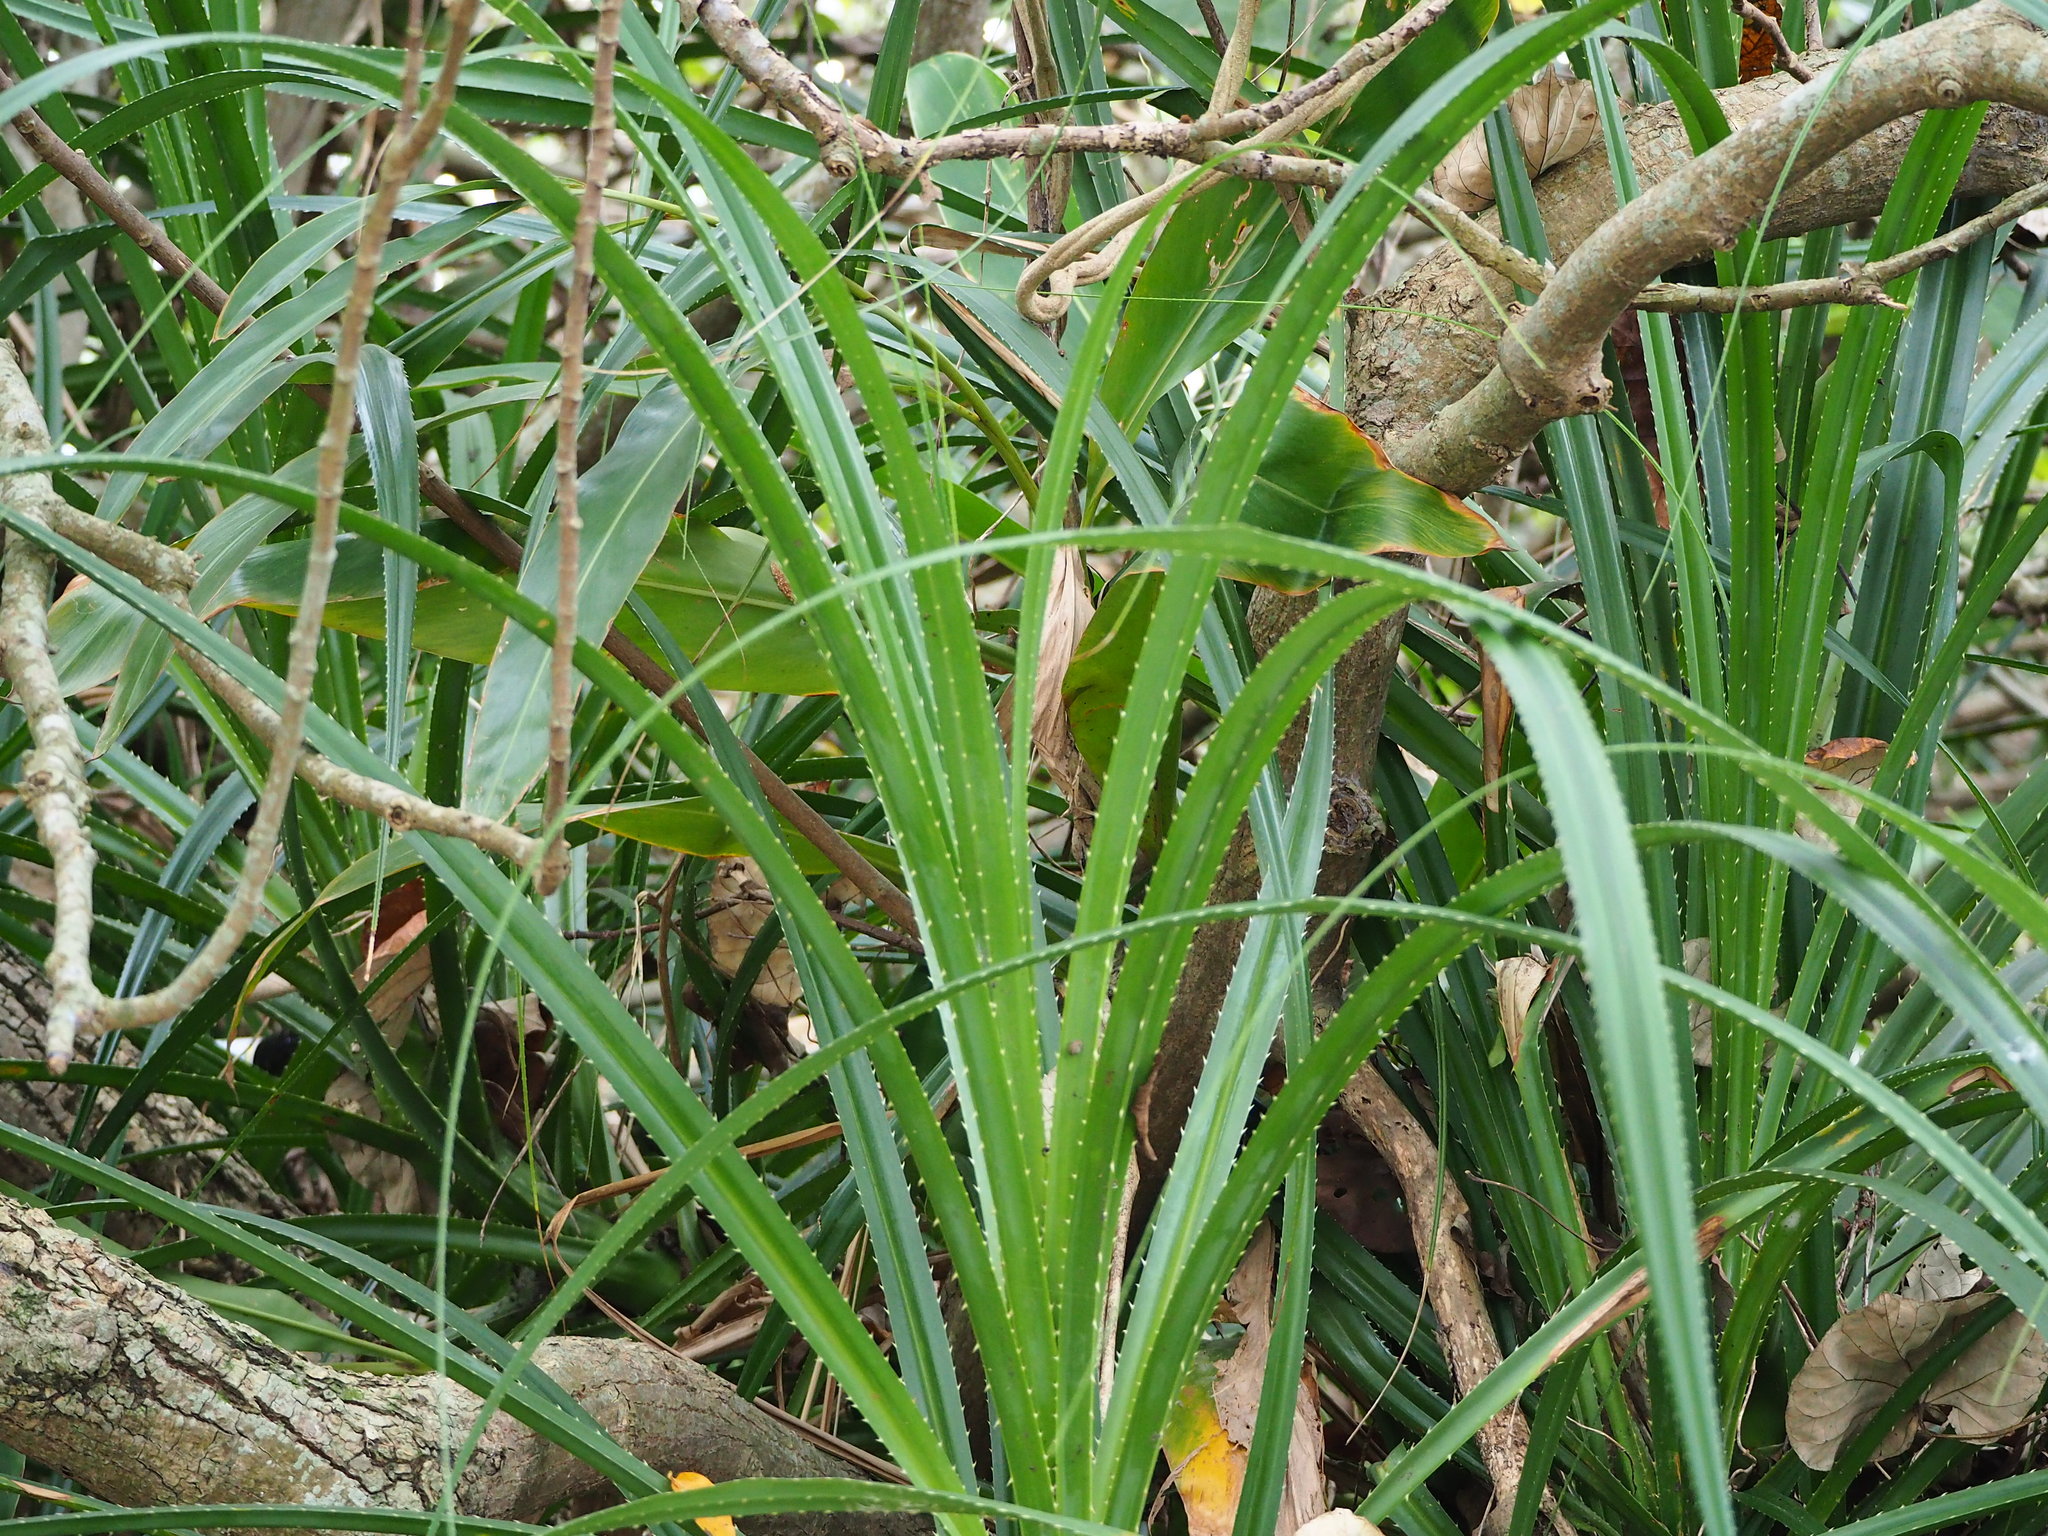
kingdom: Plantae
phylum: Tracheophyta
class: Liliopsida
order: Pandanales
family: Pandanaceae
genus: Pandanus
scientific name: Pandanus odorifer
